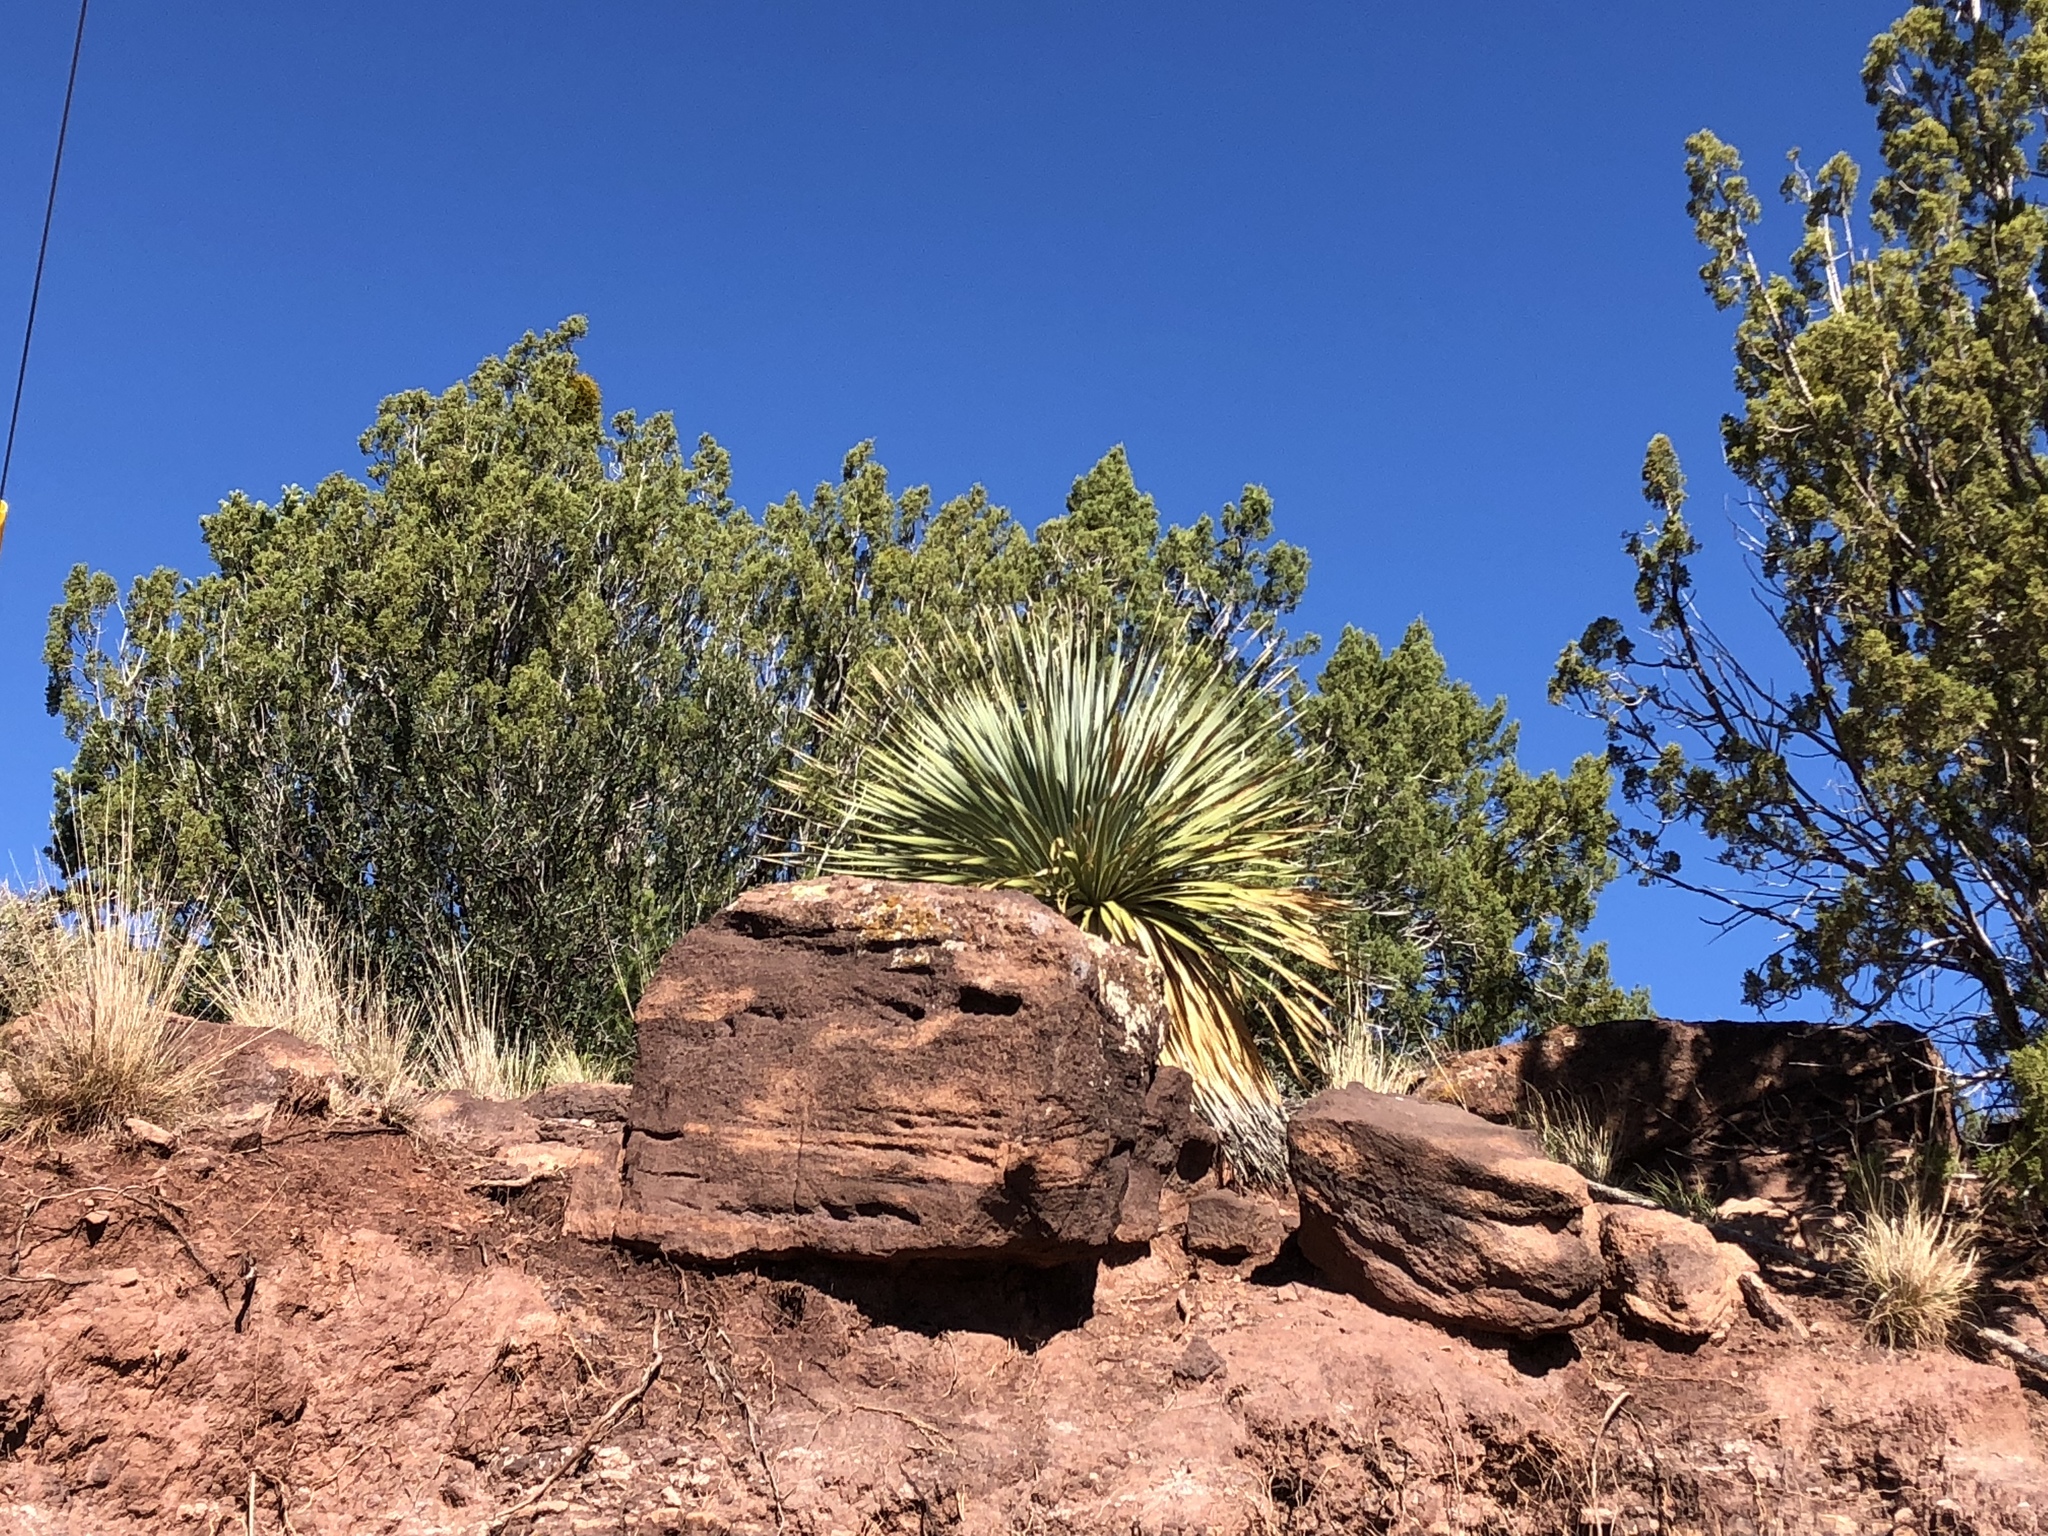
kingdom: Plantae
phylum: Tracheophyta
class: Liliopsida
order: Asparagales
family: Asparagaceae
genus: Dasylirion
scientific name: Dasylirion wheeleri
